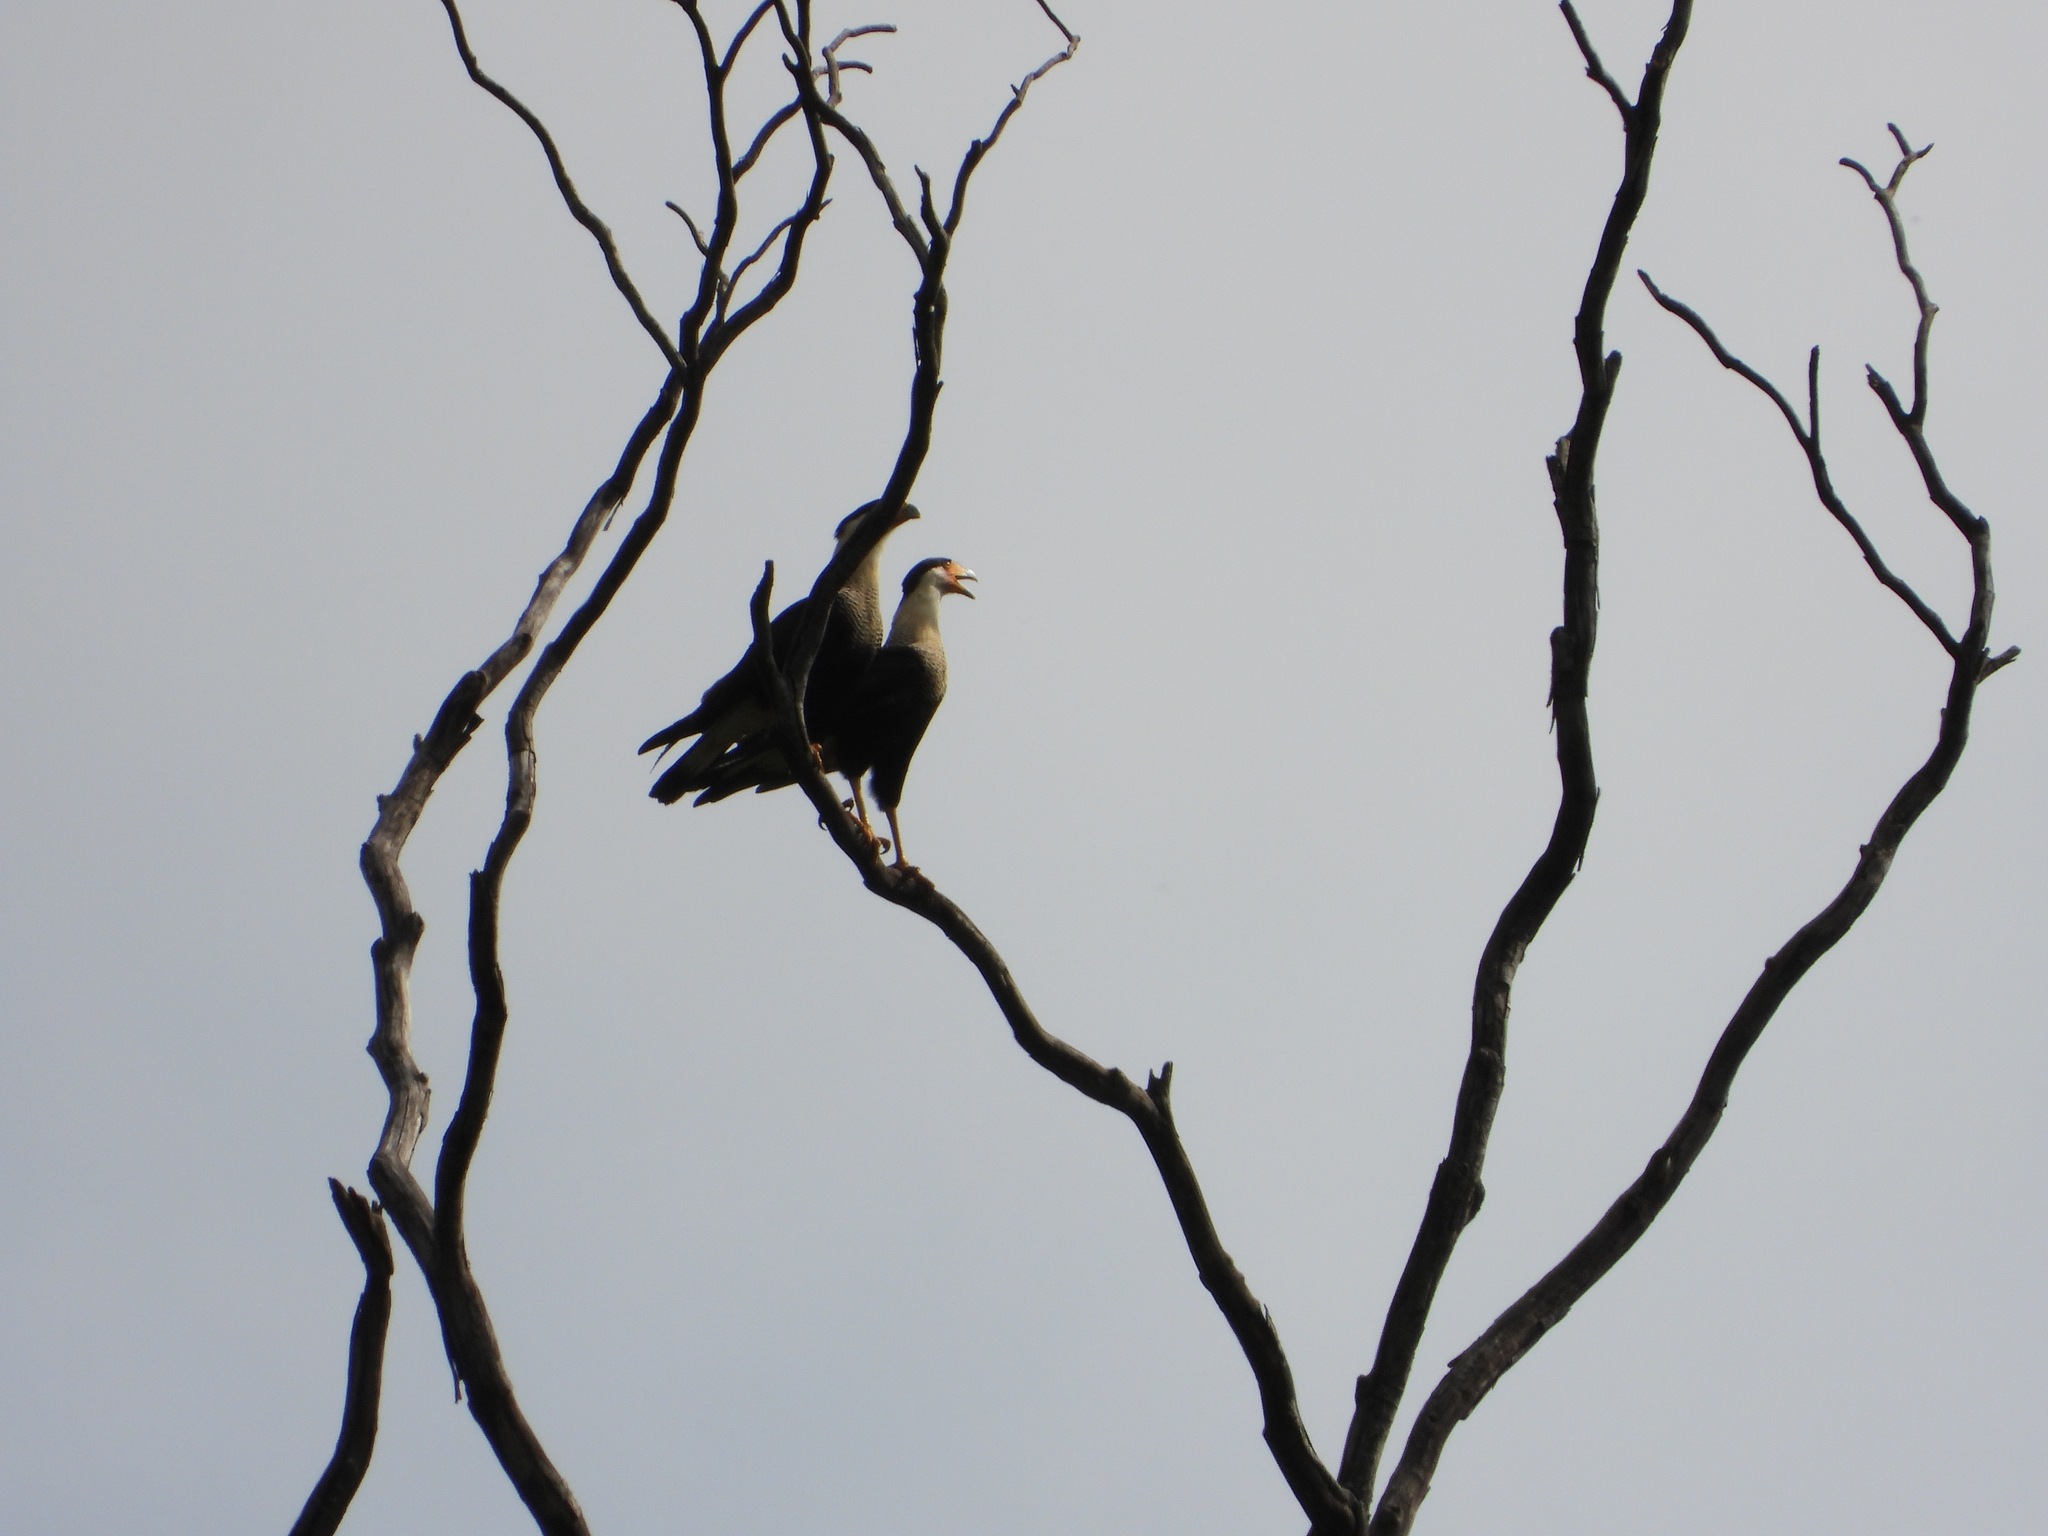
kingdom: Animalia
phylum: Chordata
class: Aves
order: Falconiformes
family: Falconidae
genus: Caracara
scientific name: Caracara plancus
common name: Southern caracara
